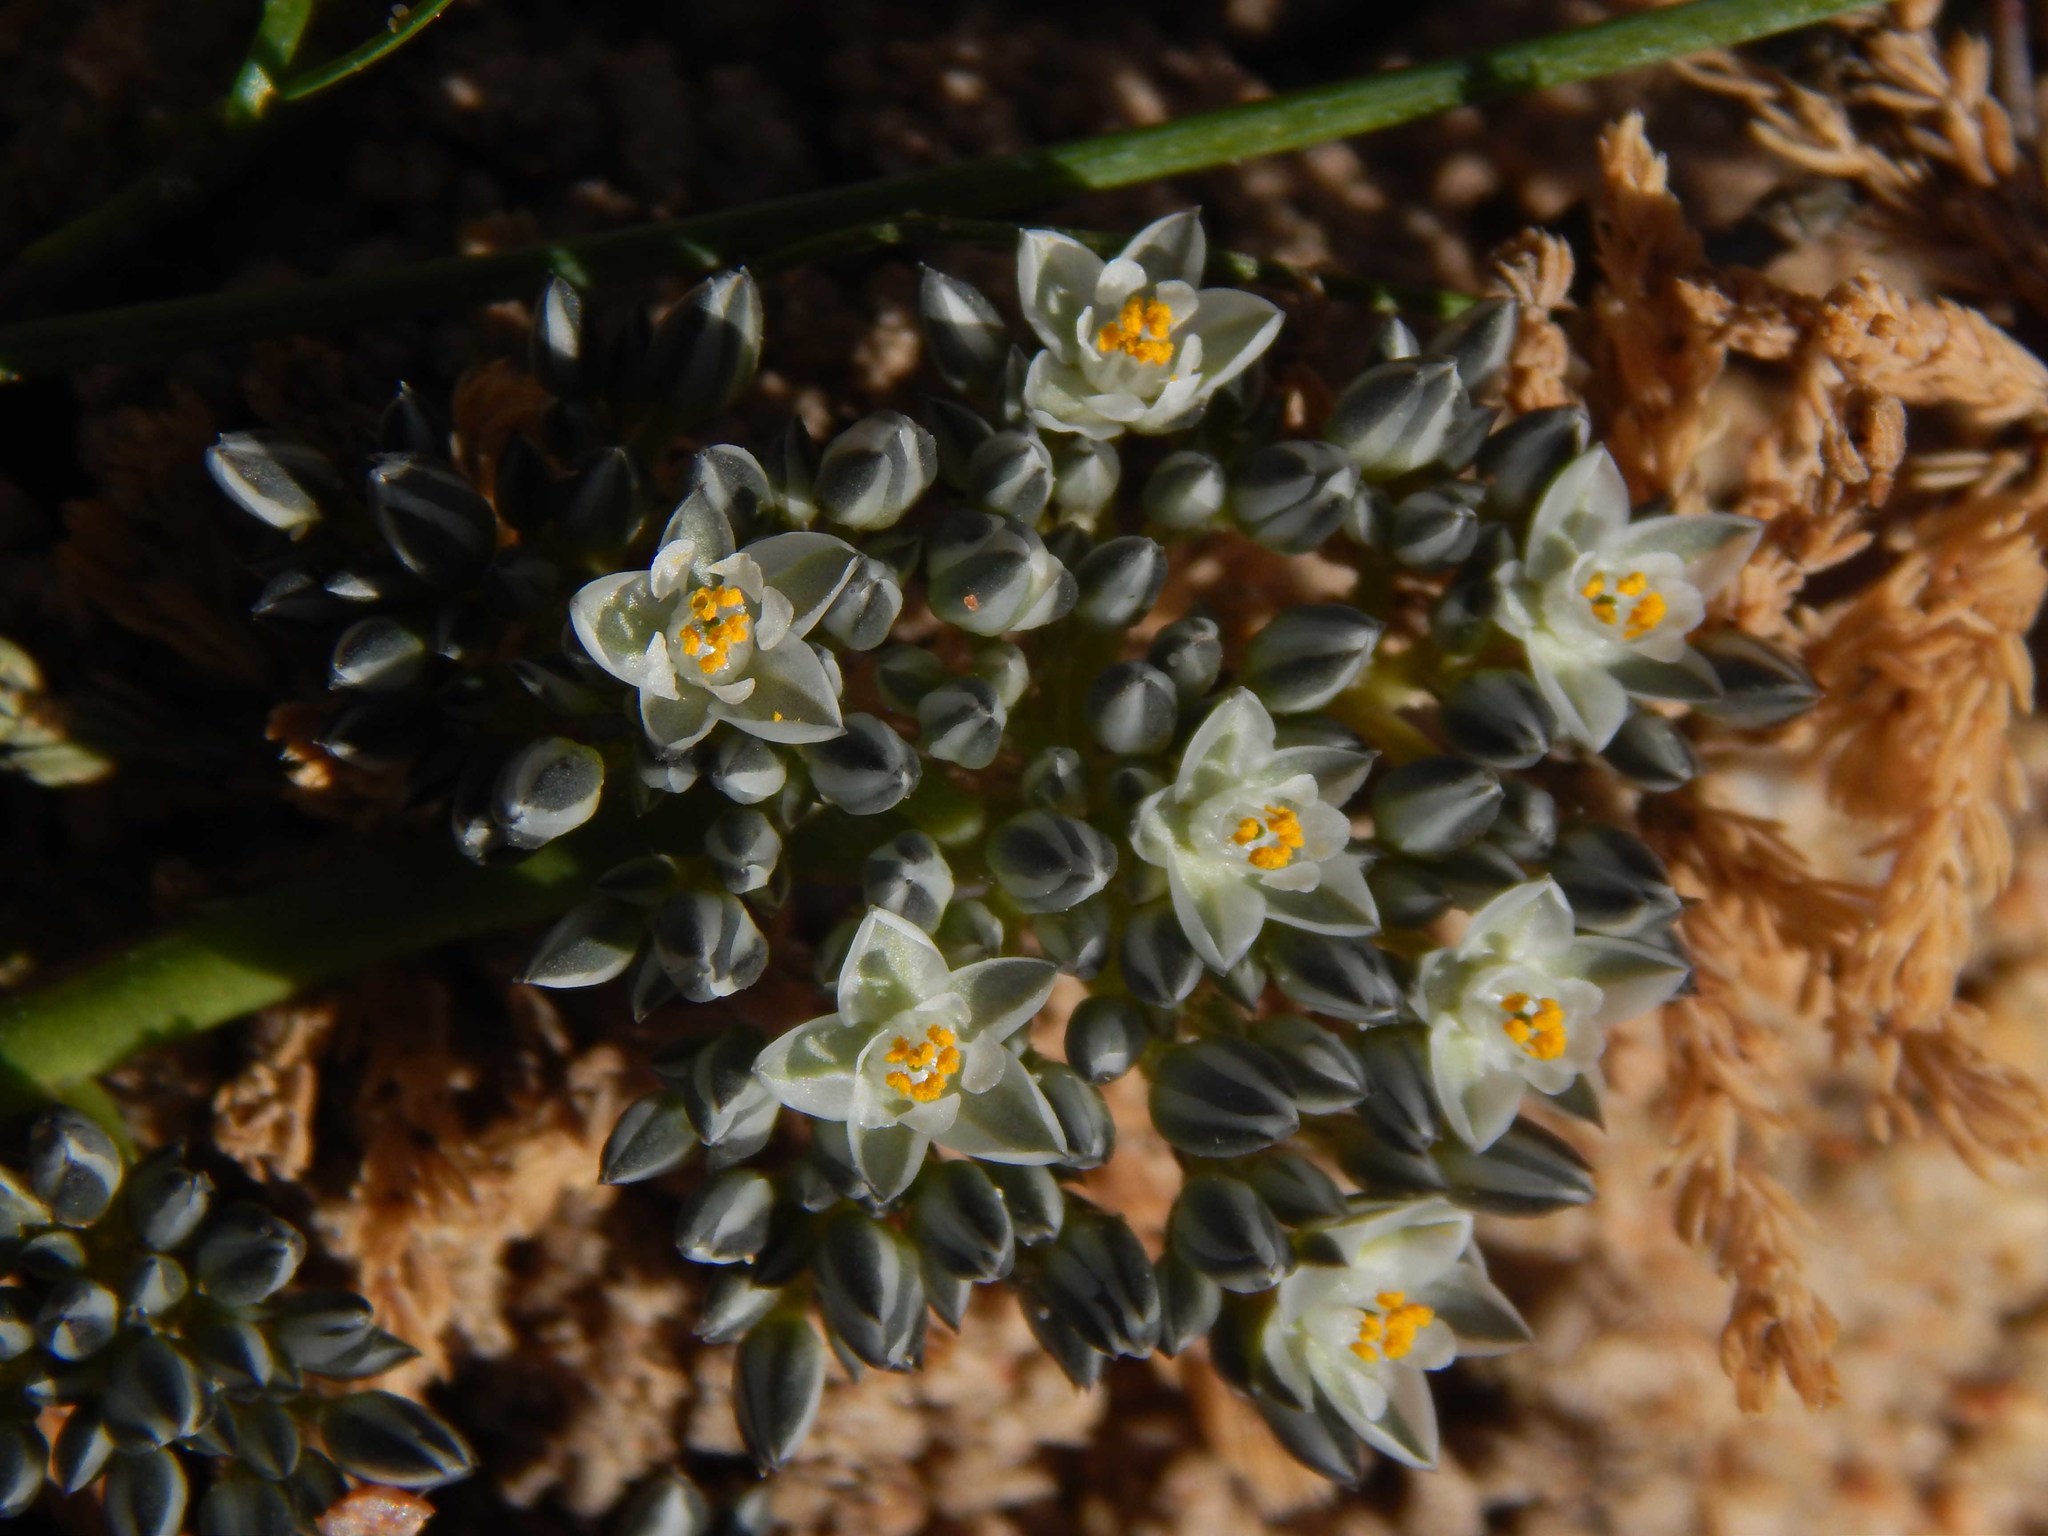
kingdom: Plantae
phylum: Tracheophyta
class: Magnoliopsida
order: Caryophyllales
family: Limeaceae
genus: Limeum
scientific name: Limeum africanum
